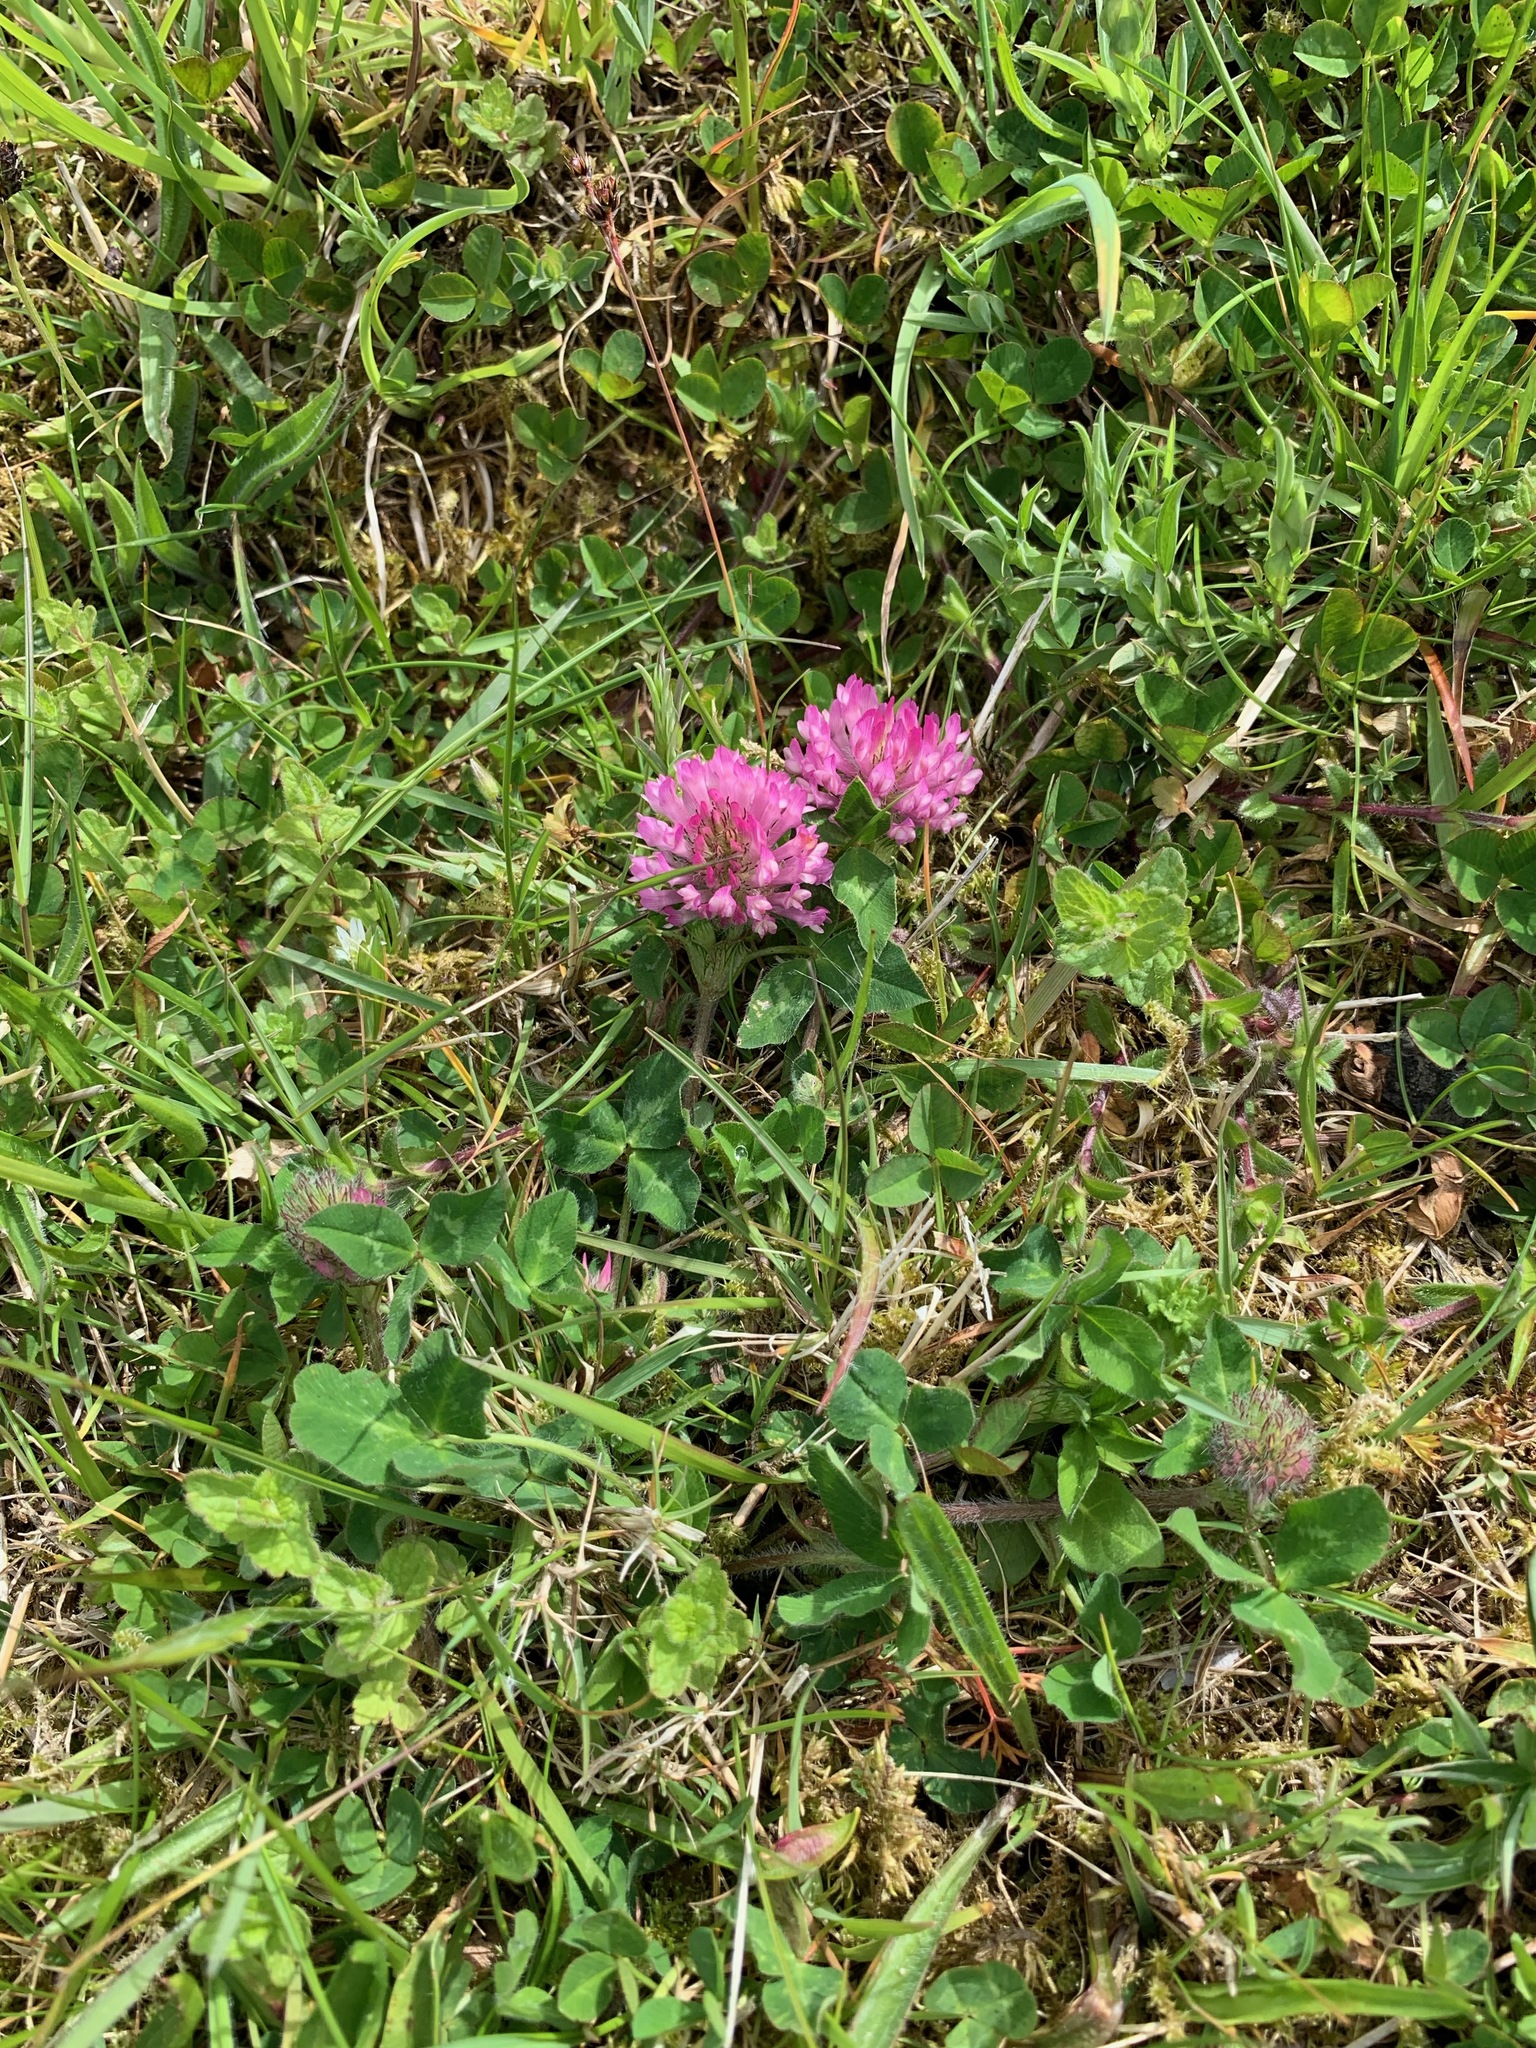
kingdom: Plantae
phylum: Tracheophyta
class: Magnoliopsida
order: Fabales
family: Fabaceae
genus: Trifolium
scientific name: Trifolium pratense
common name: Red clover
